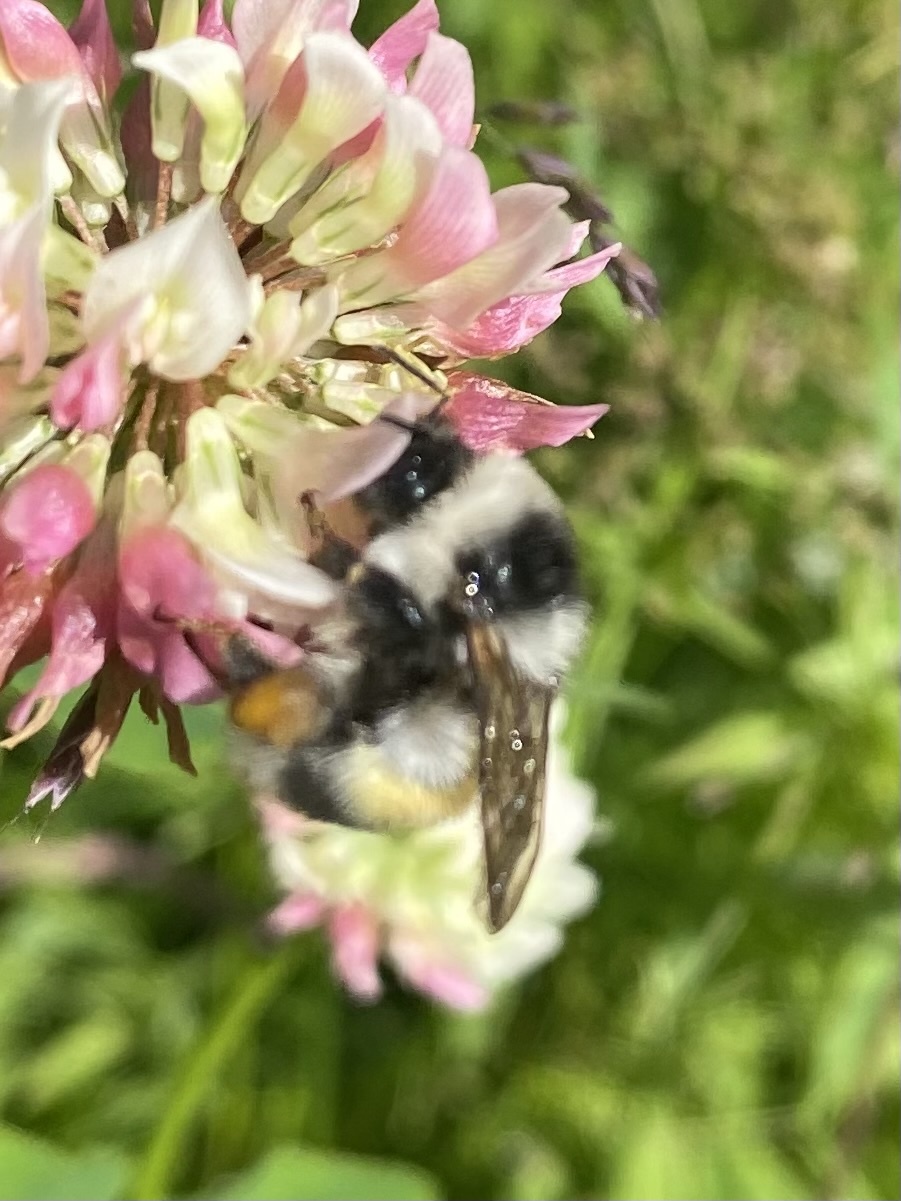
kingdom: Animalia
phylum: Arthropoda
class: Insecta
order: Hymenoptera
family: Apidae
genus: Bombus
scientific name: Bombus patagiatus
